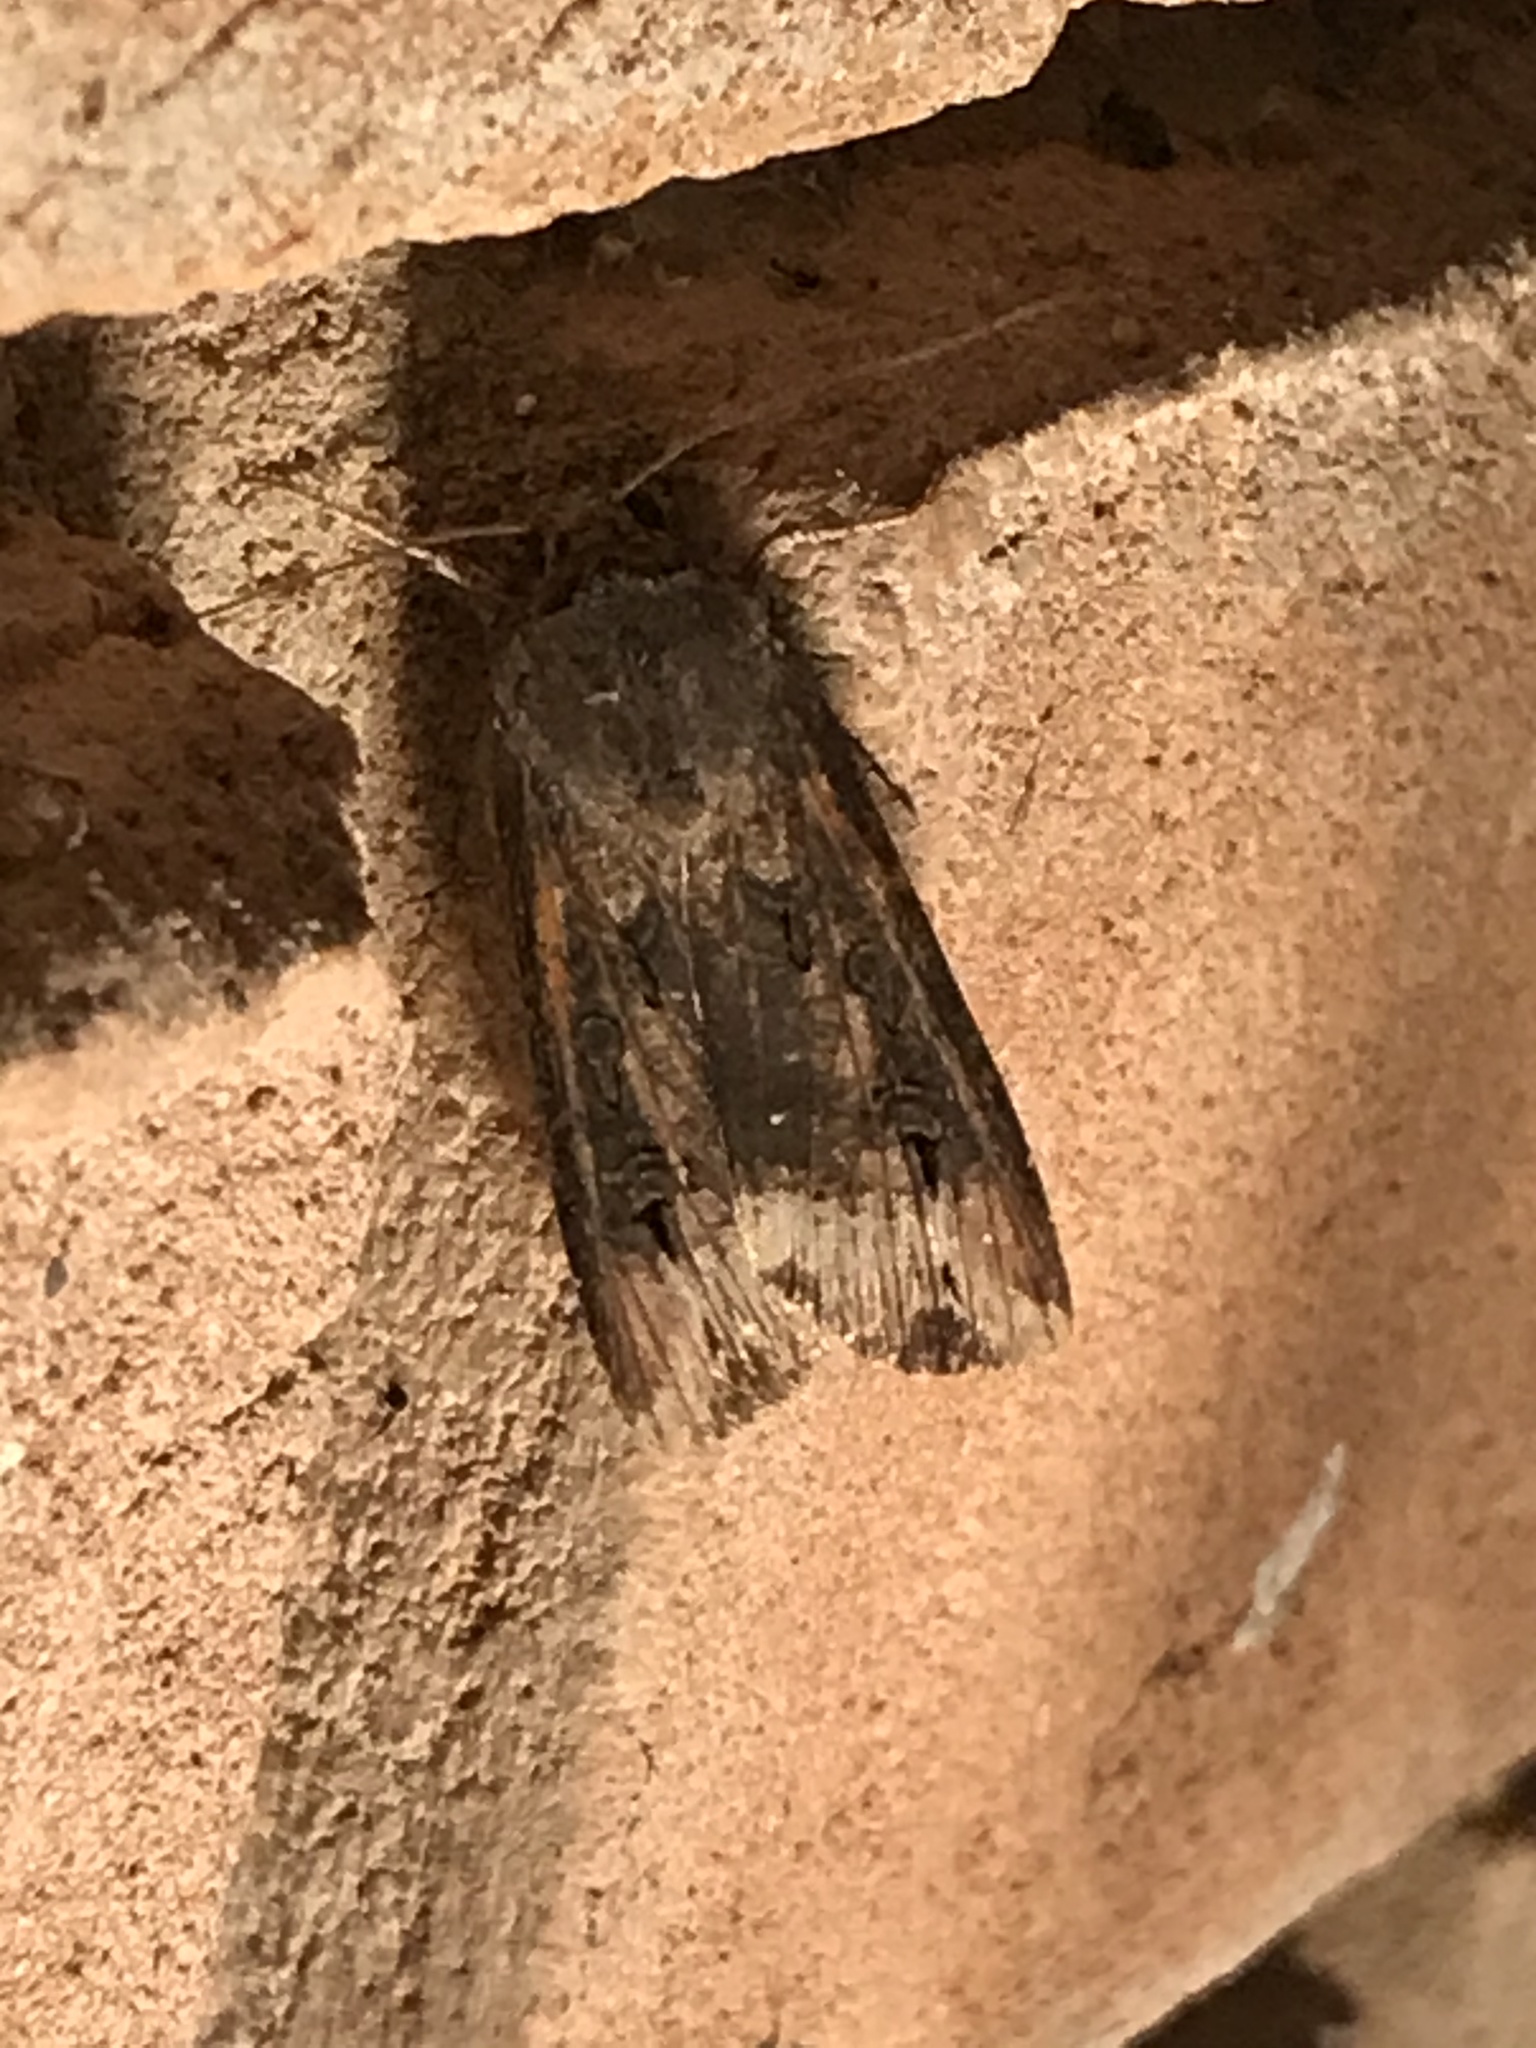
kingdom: Animalia
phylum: Arthropoda
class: Insecta
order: Lepidoptera
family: Noctuidae
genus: Agrotis
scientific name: Agrotis ipsilon
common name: Dark sword-grass
